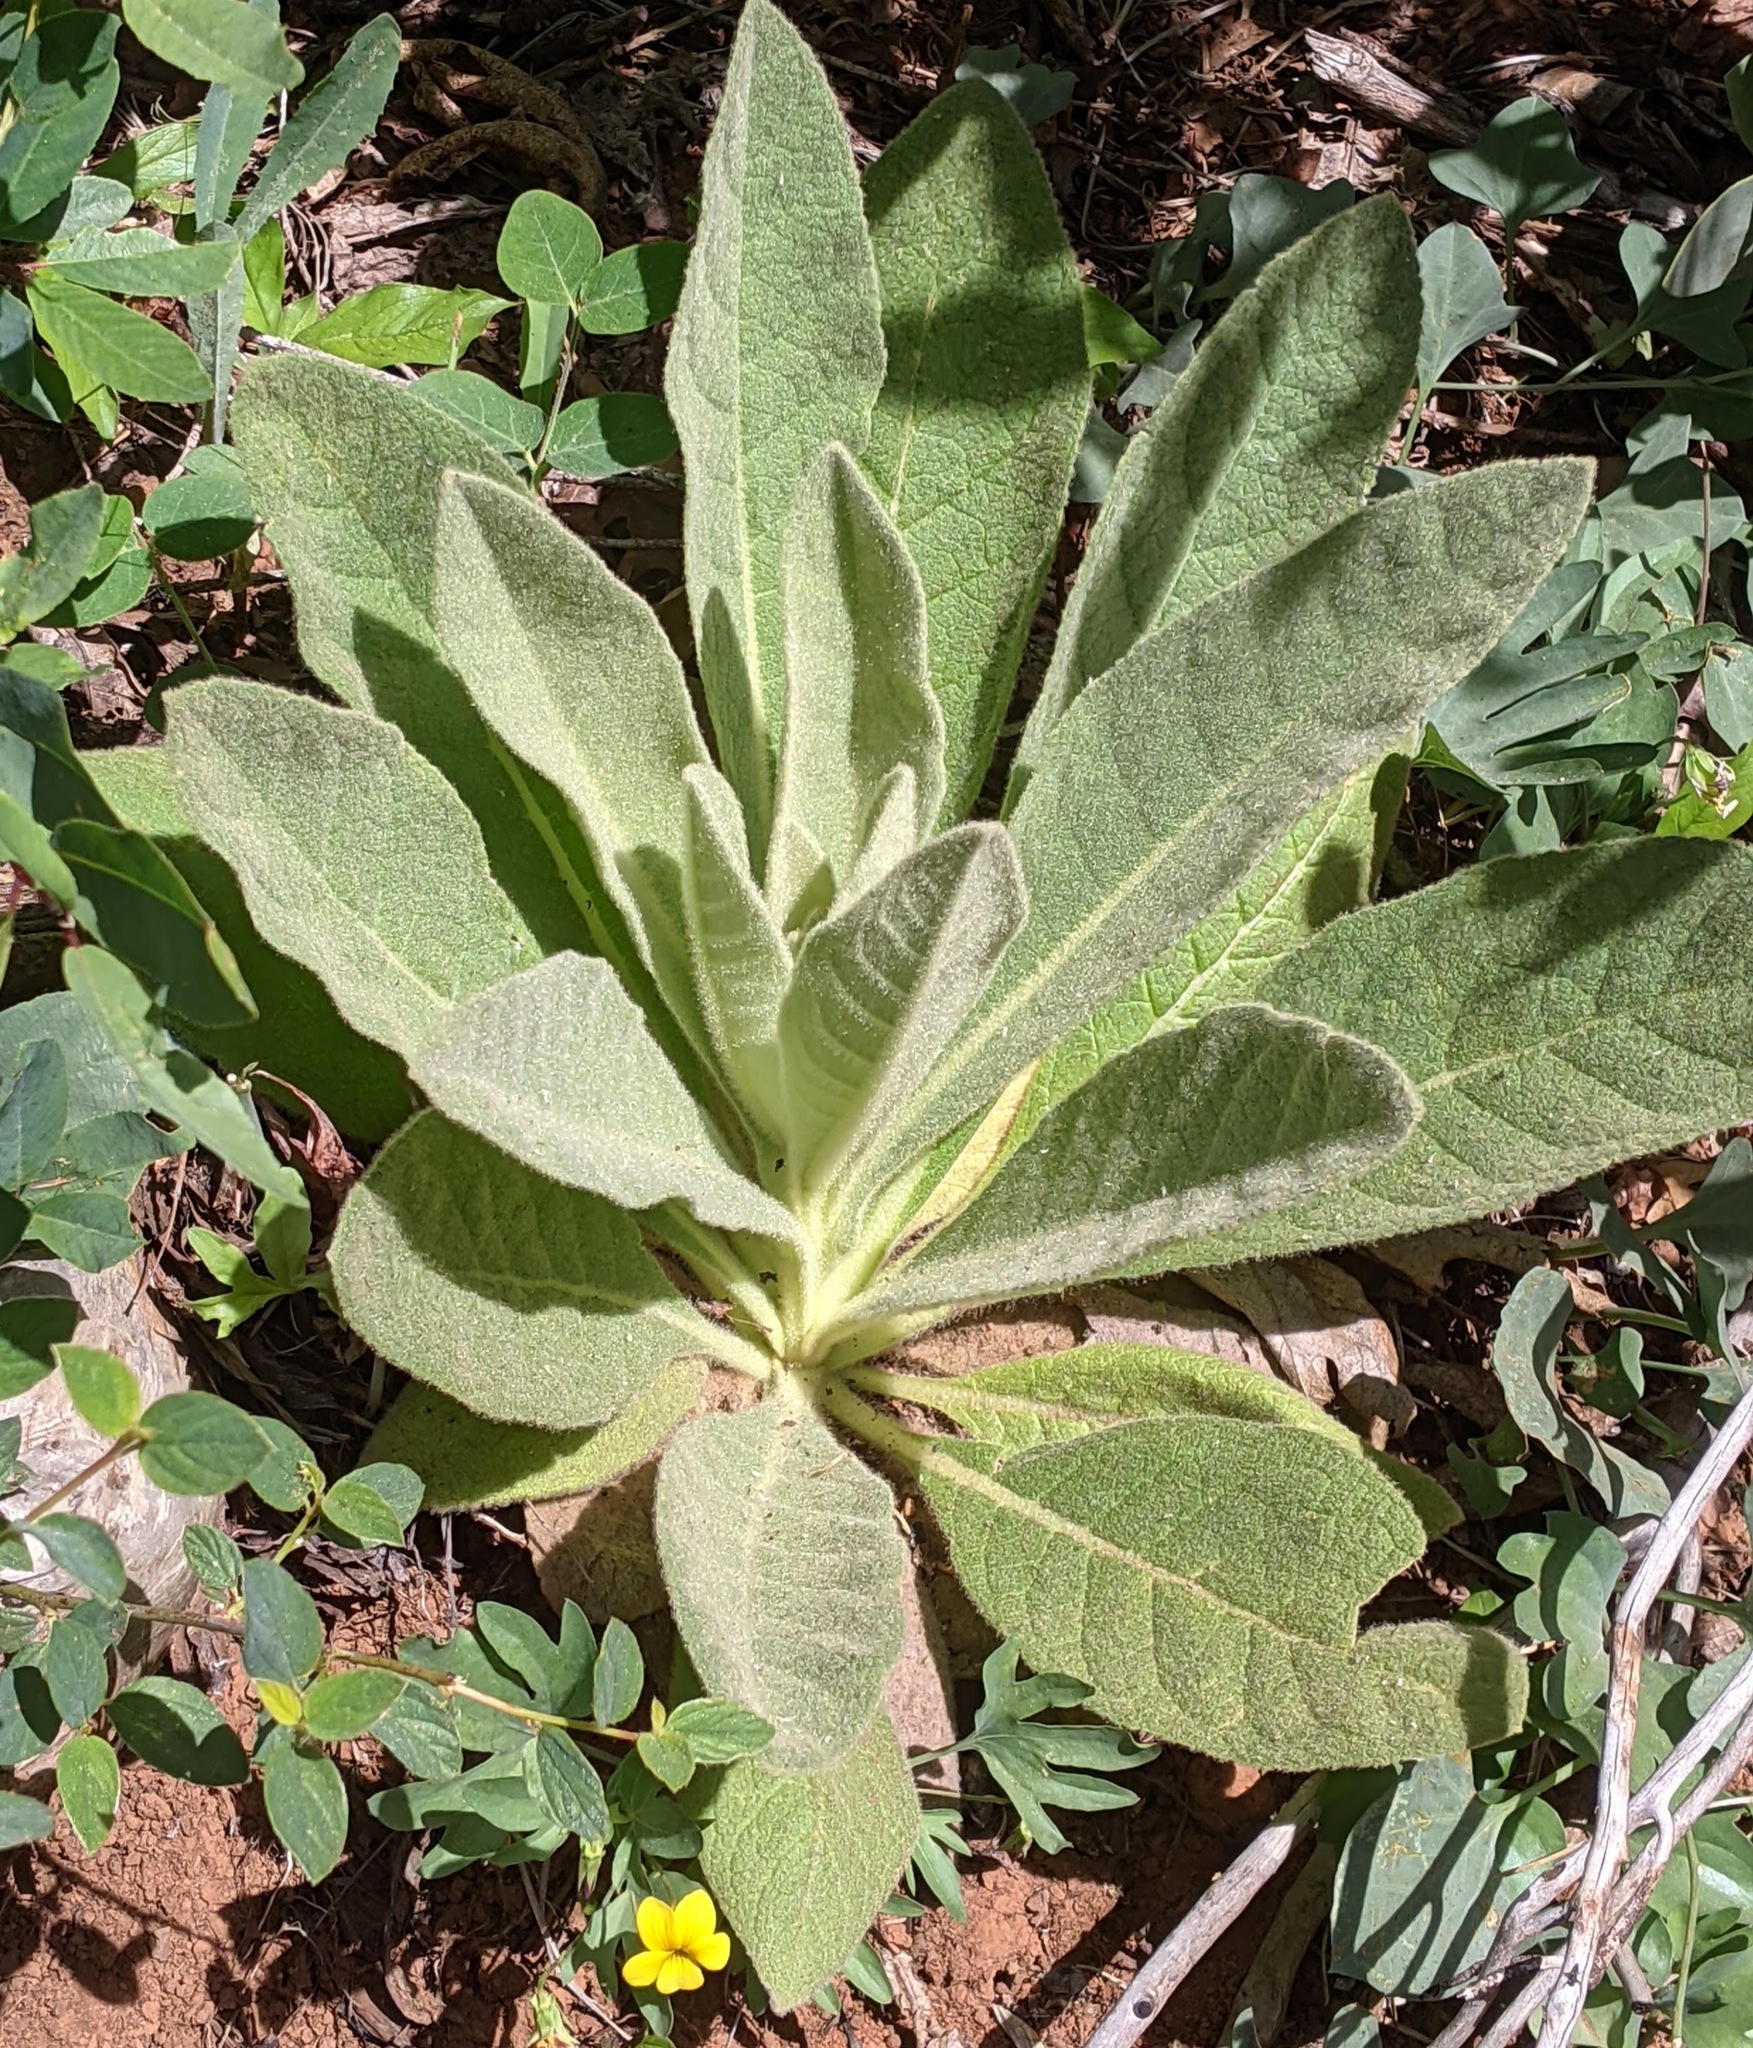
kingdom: Plantae
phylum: Tracheophyta
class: Magnoliopsida
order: Lamiales
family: Scrophulariaceae
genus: Verbascum
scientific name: Verbascum thapsus
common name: Common mullein
